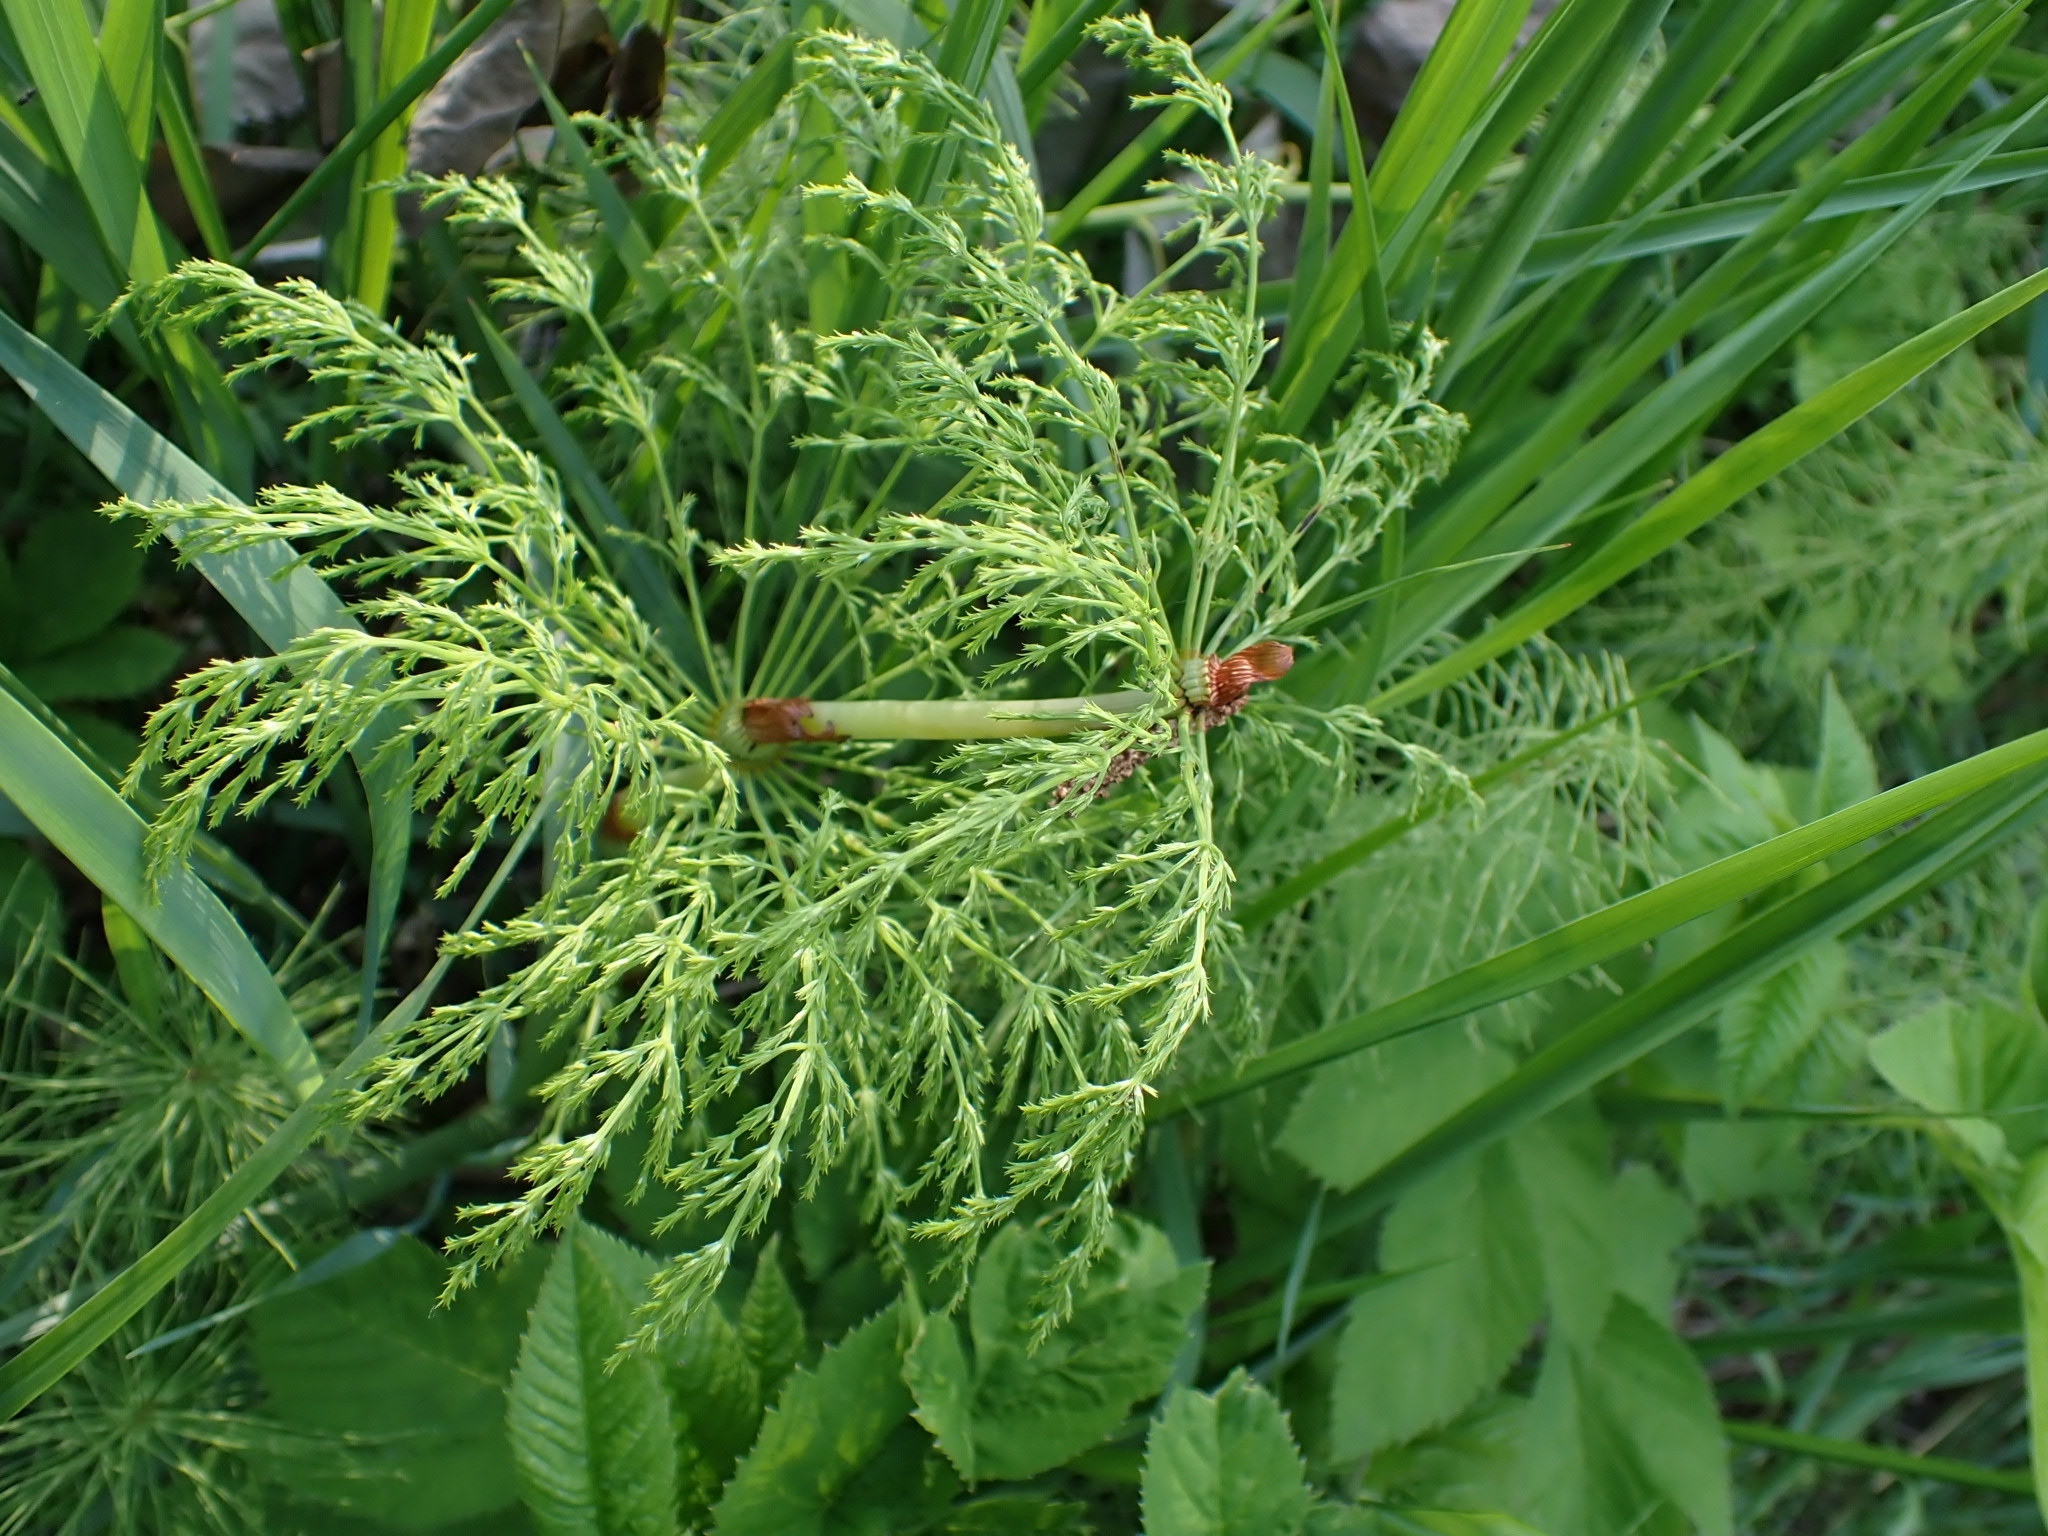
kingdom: Plantae
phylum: Tracheophyta
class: Polypodiopsida
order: Equisetales
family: Equisetaceae
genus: Equisetum
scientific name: Equisetum sylvaticum
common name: Wood horsetail
